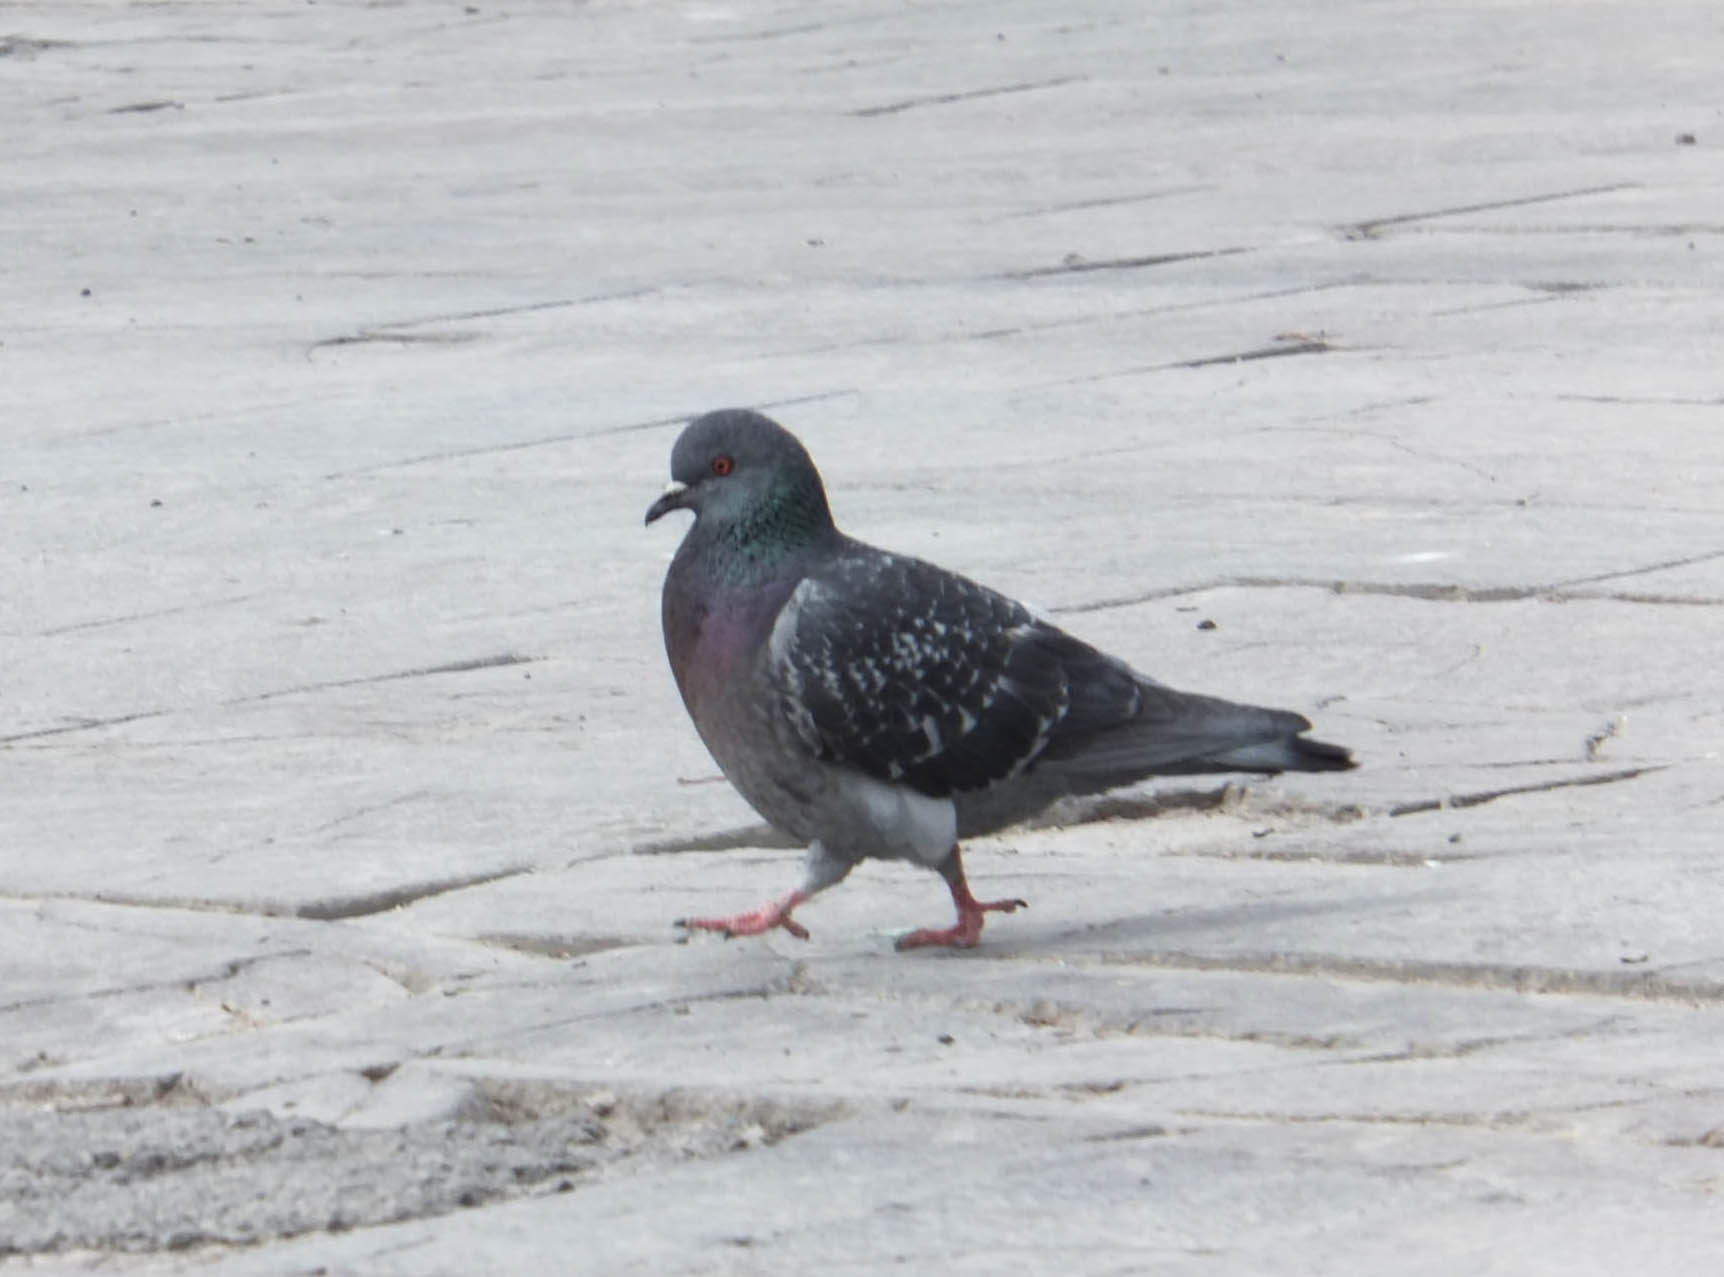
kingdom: Animalia
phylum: Chordata
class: Aves
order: Columbiformes
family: Columbidae
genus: Columba
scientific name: Columba livia
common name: Rock pigeon
